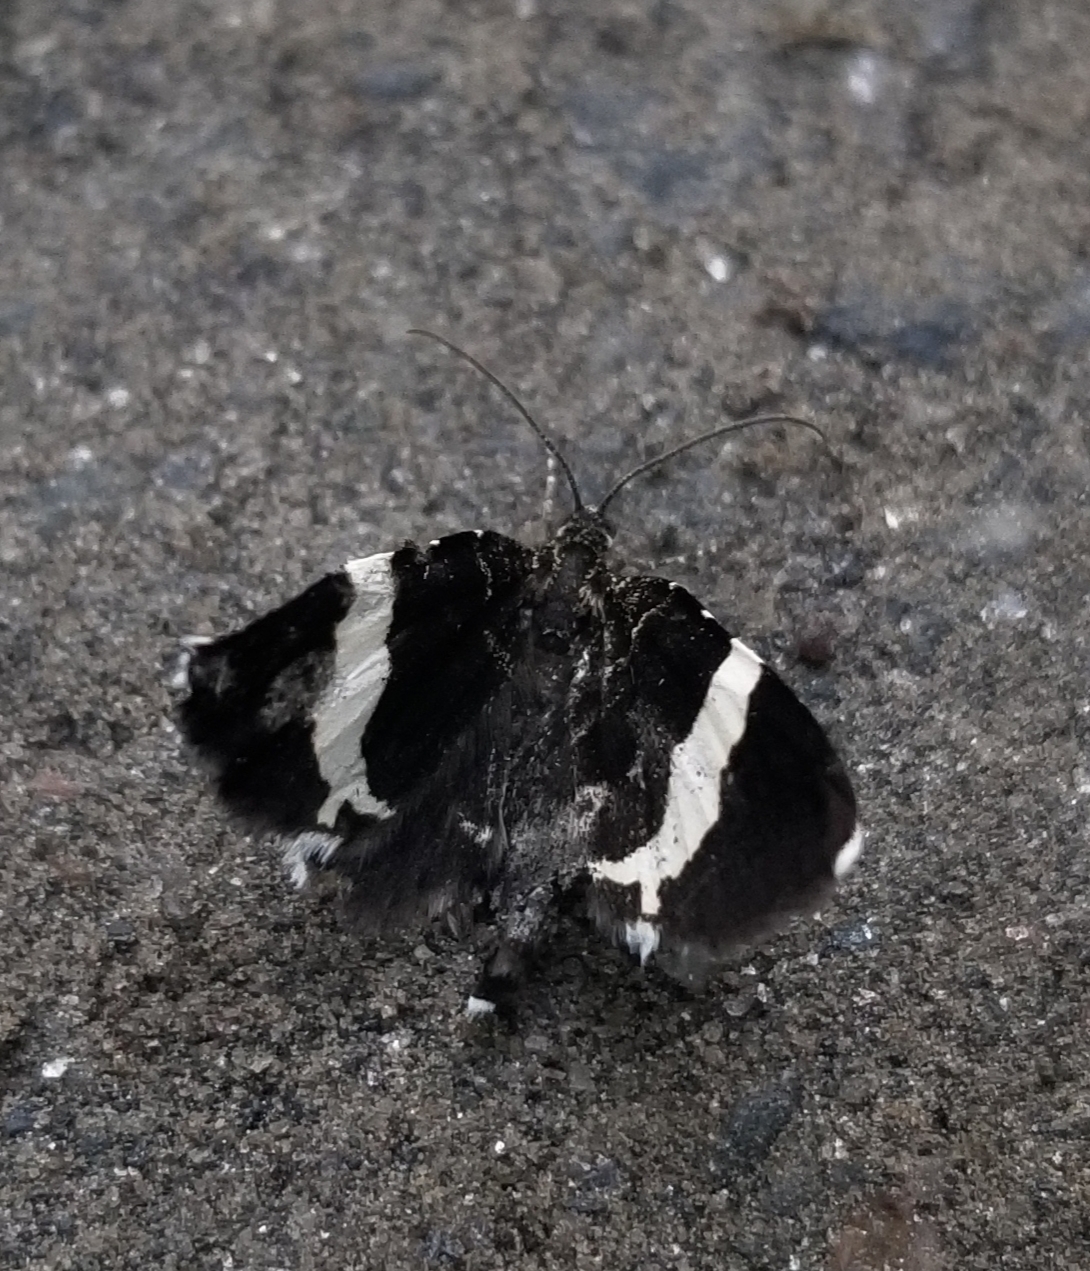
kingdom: Animalia
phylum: Arthropoda
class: Insecta
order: Lepidoptera
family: Geometridae
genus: Trichodezia
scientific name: Trichodezia albovittata
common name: White striped black
